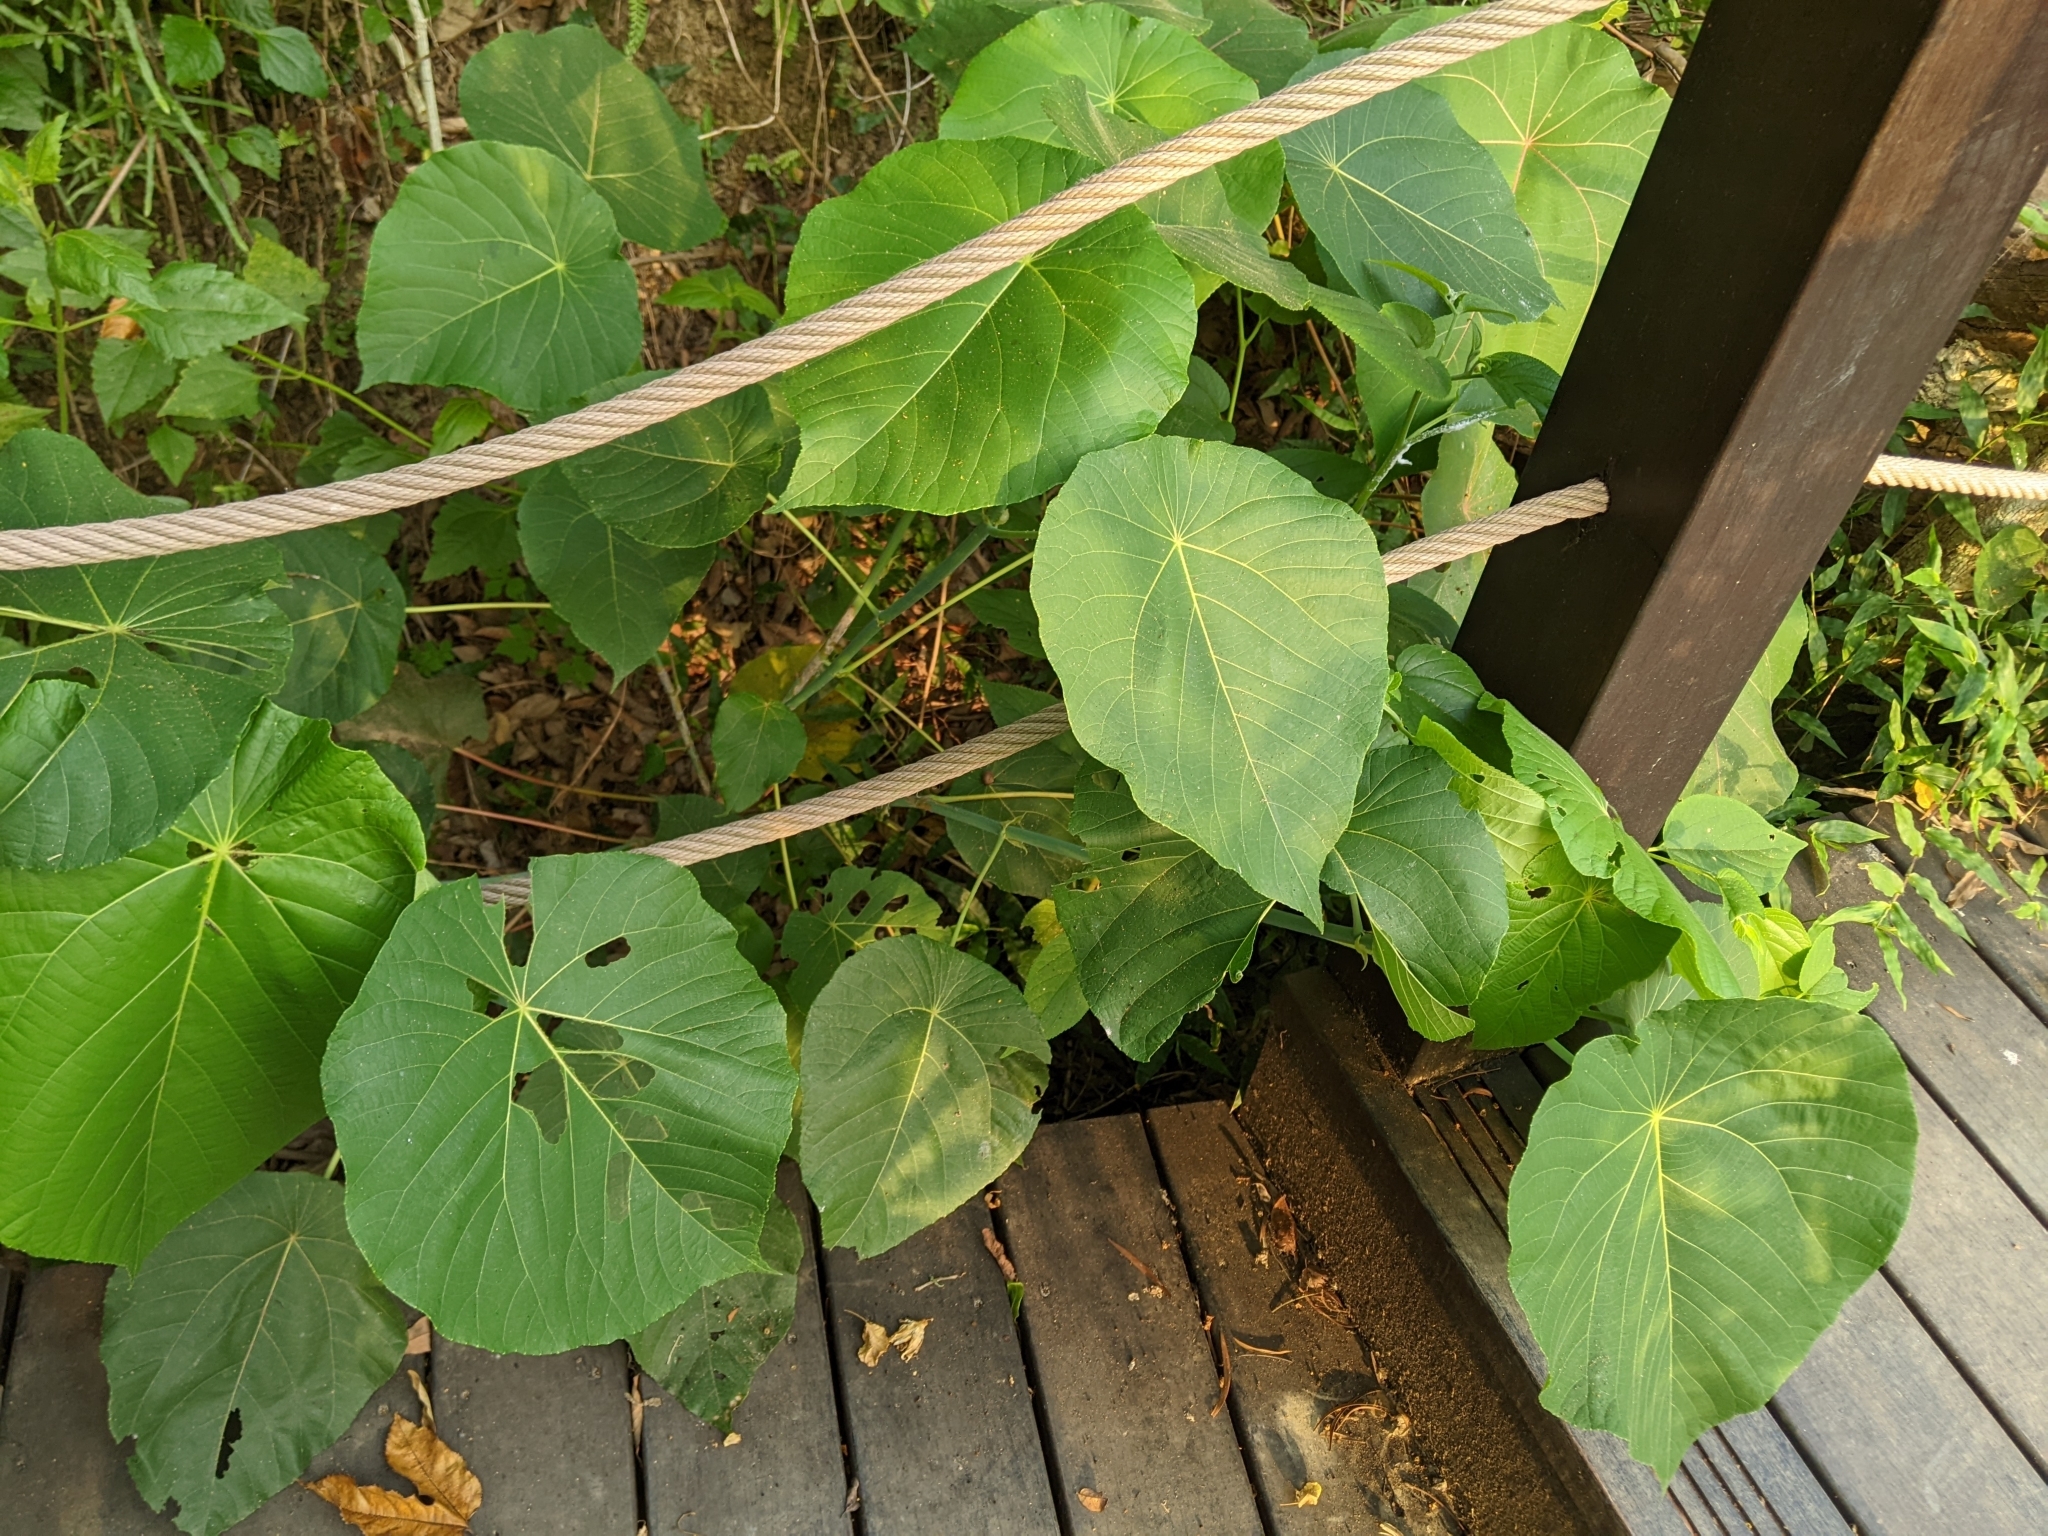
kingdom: Plantae
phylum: Tracheophyta
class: Magnoliopsida
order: Malpighiales
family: Euphorbiaceae
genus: Macaranga
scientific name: Macaranga tanarius
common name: Parasol leaf tree
